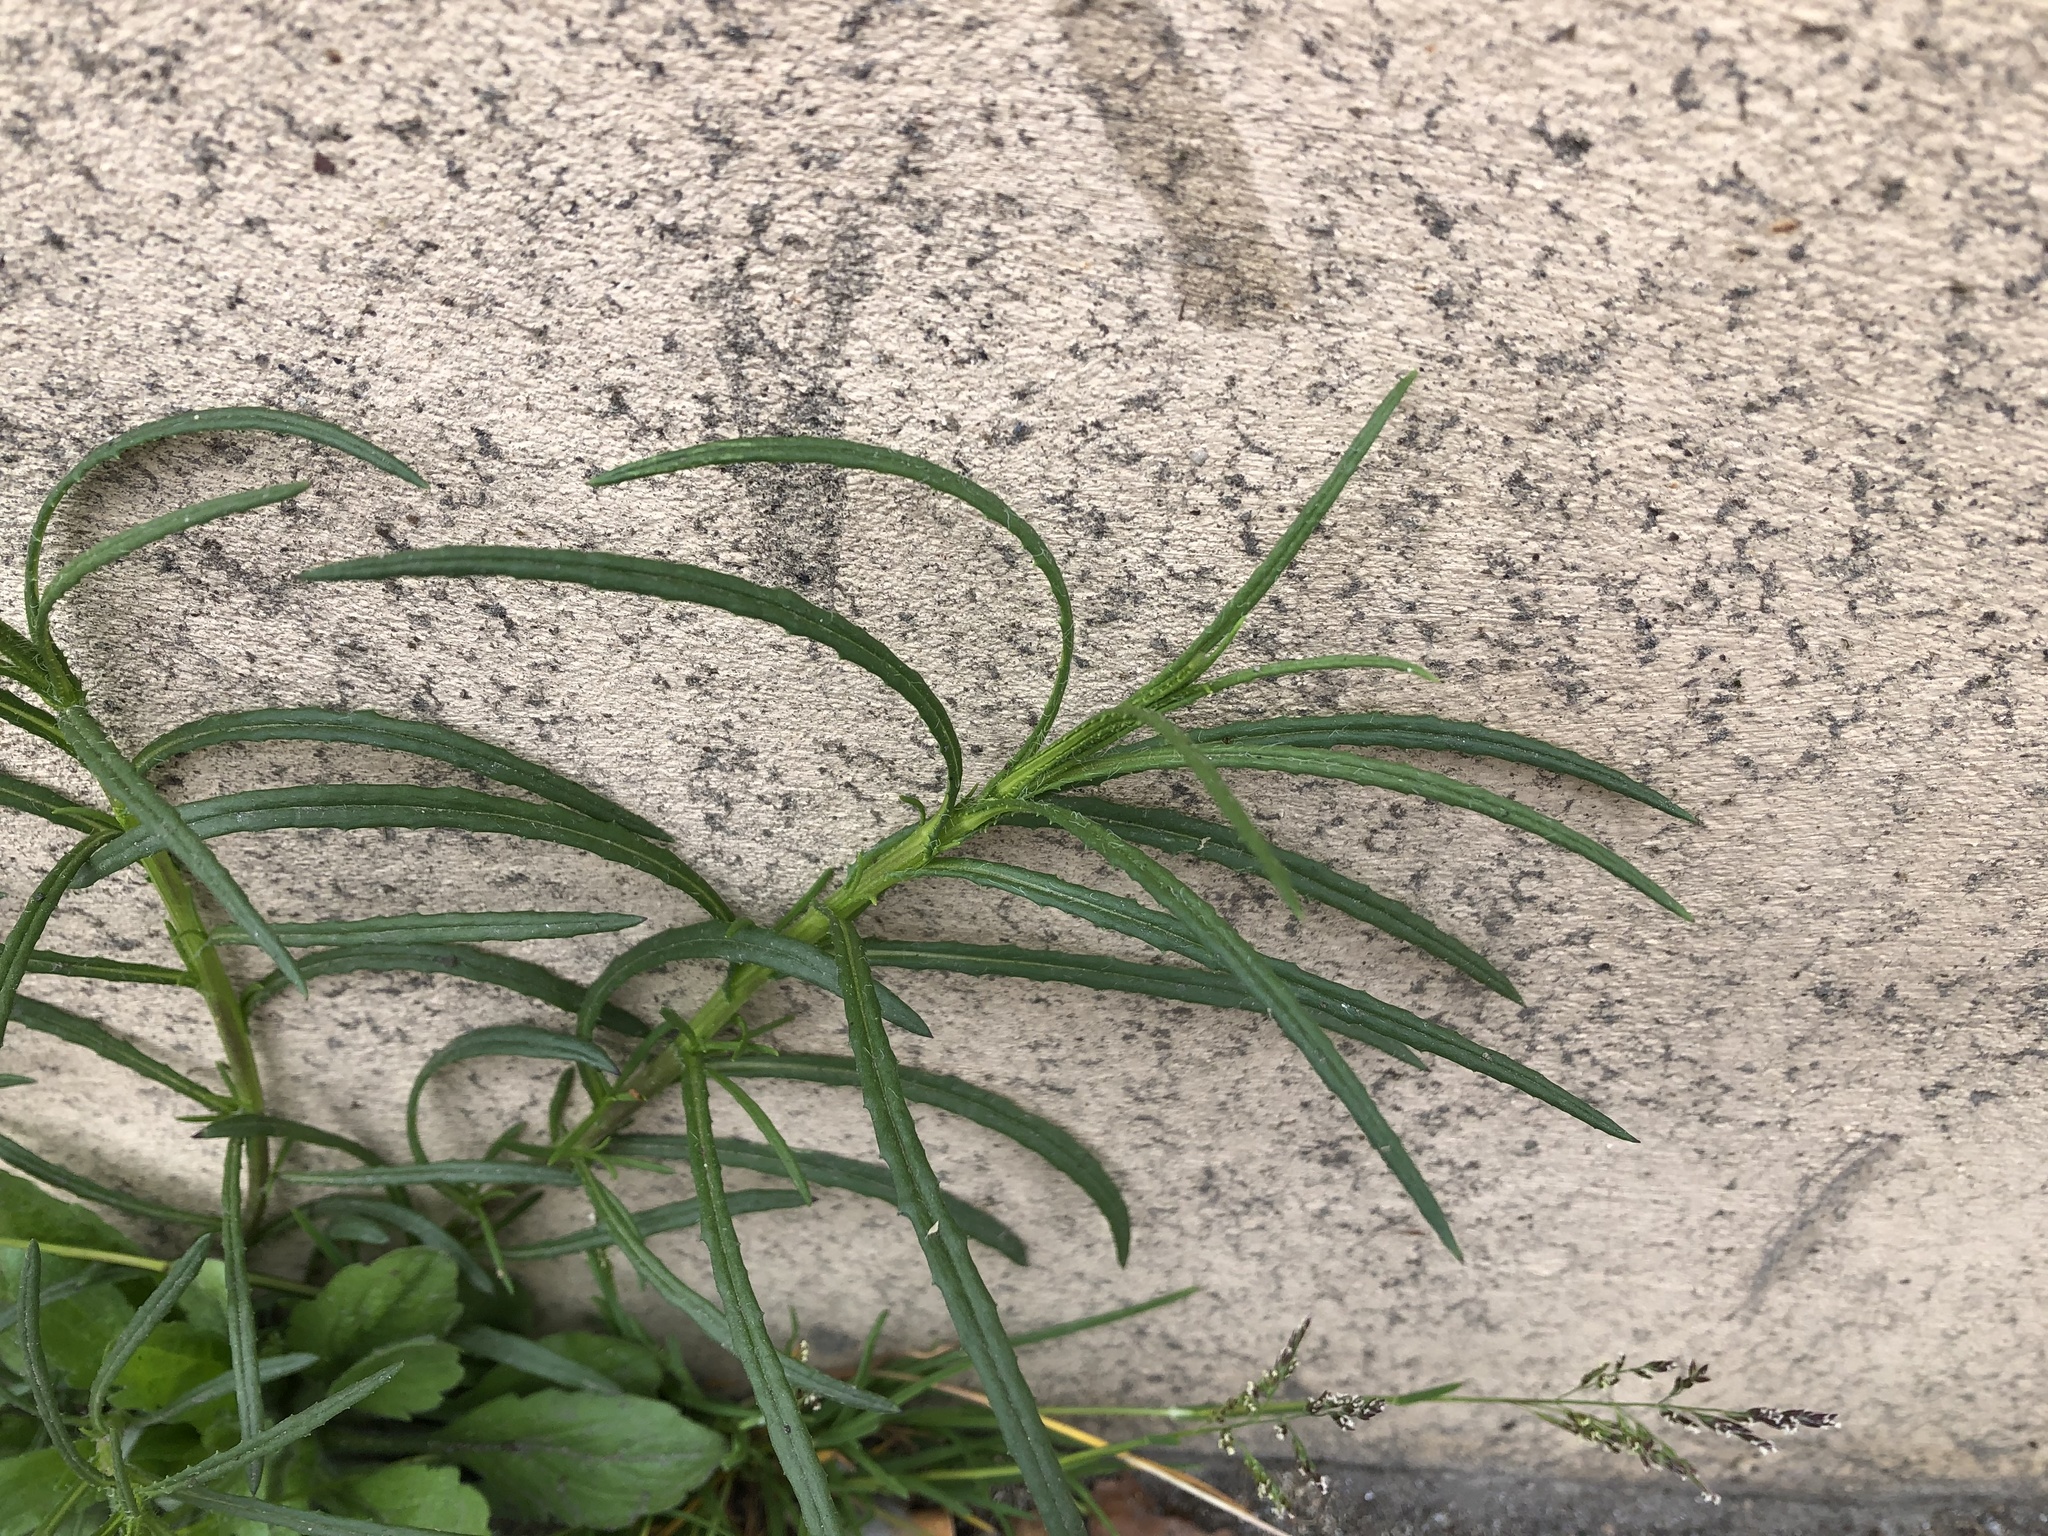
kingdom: Plantae
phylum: Tracheophyta
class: Magnoliopsida
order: Asterales
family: Asteraceae
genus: Senecio
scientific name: Senecio inaequidens
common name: Narrow-leaved ragwort
